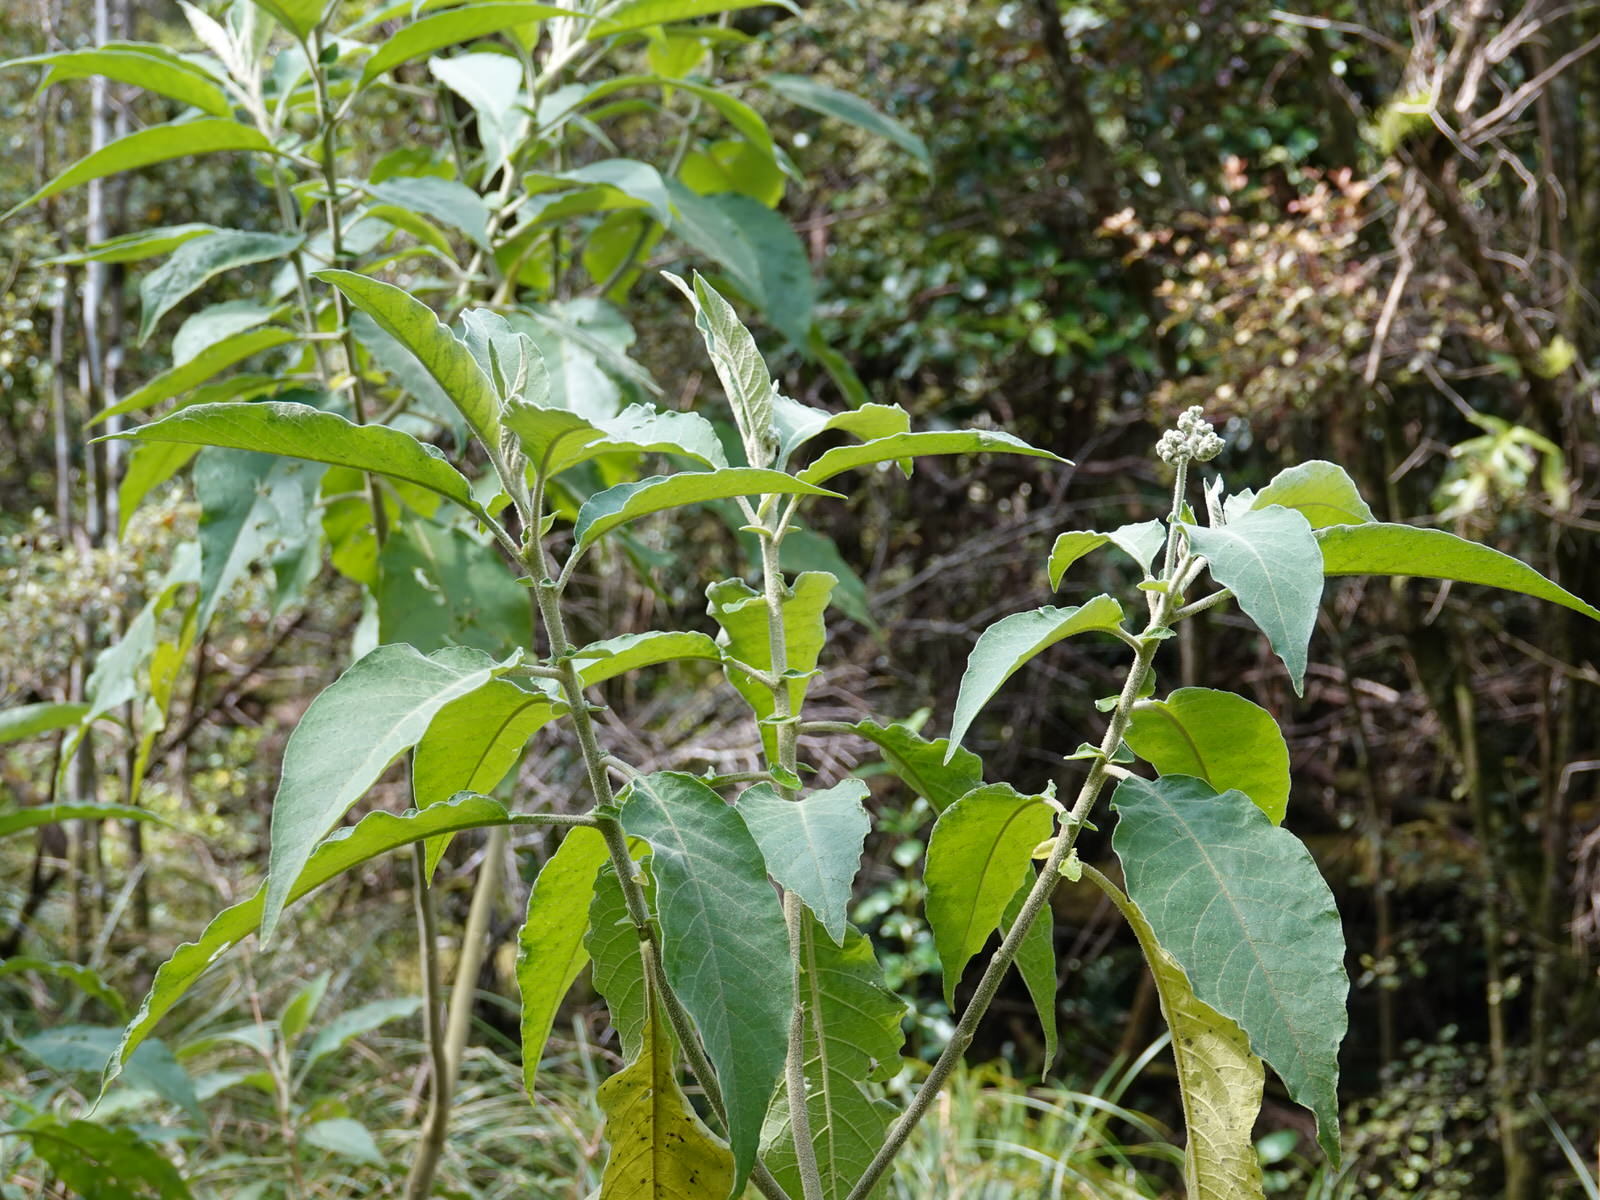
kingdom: Plantae
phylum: Tracheophyta
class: Magnoliopsida
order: Solanales
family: Solanaceae
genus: Solanum
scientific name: Solanum mauritianum
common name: Earleaf nightshade
